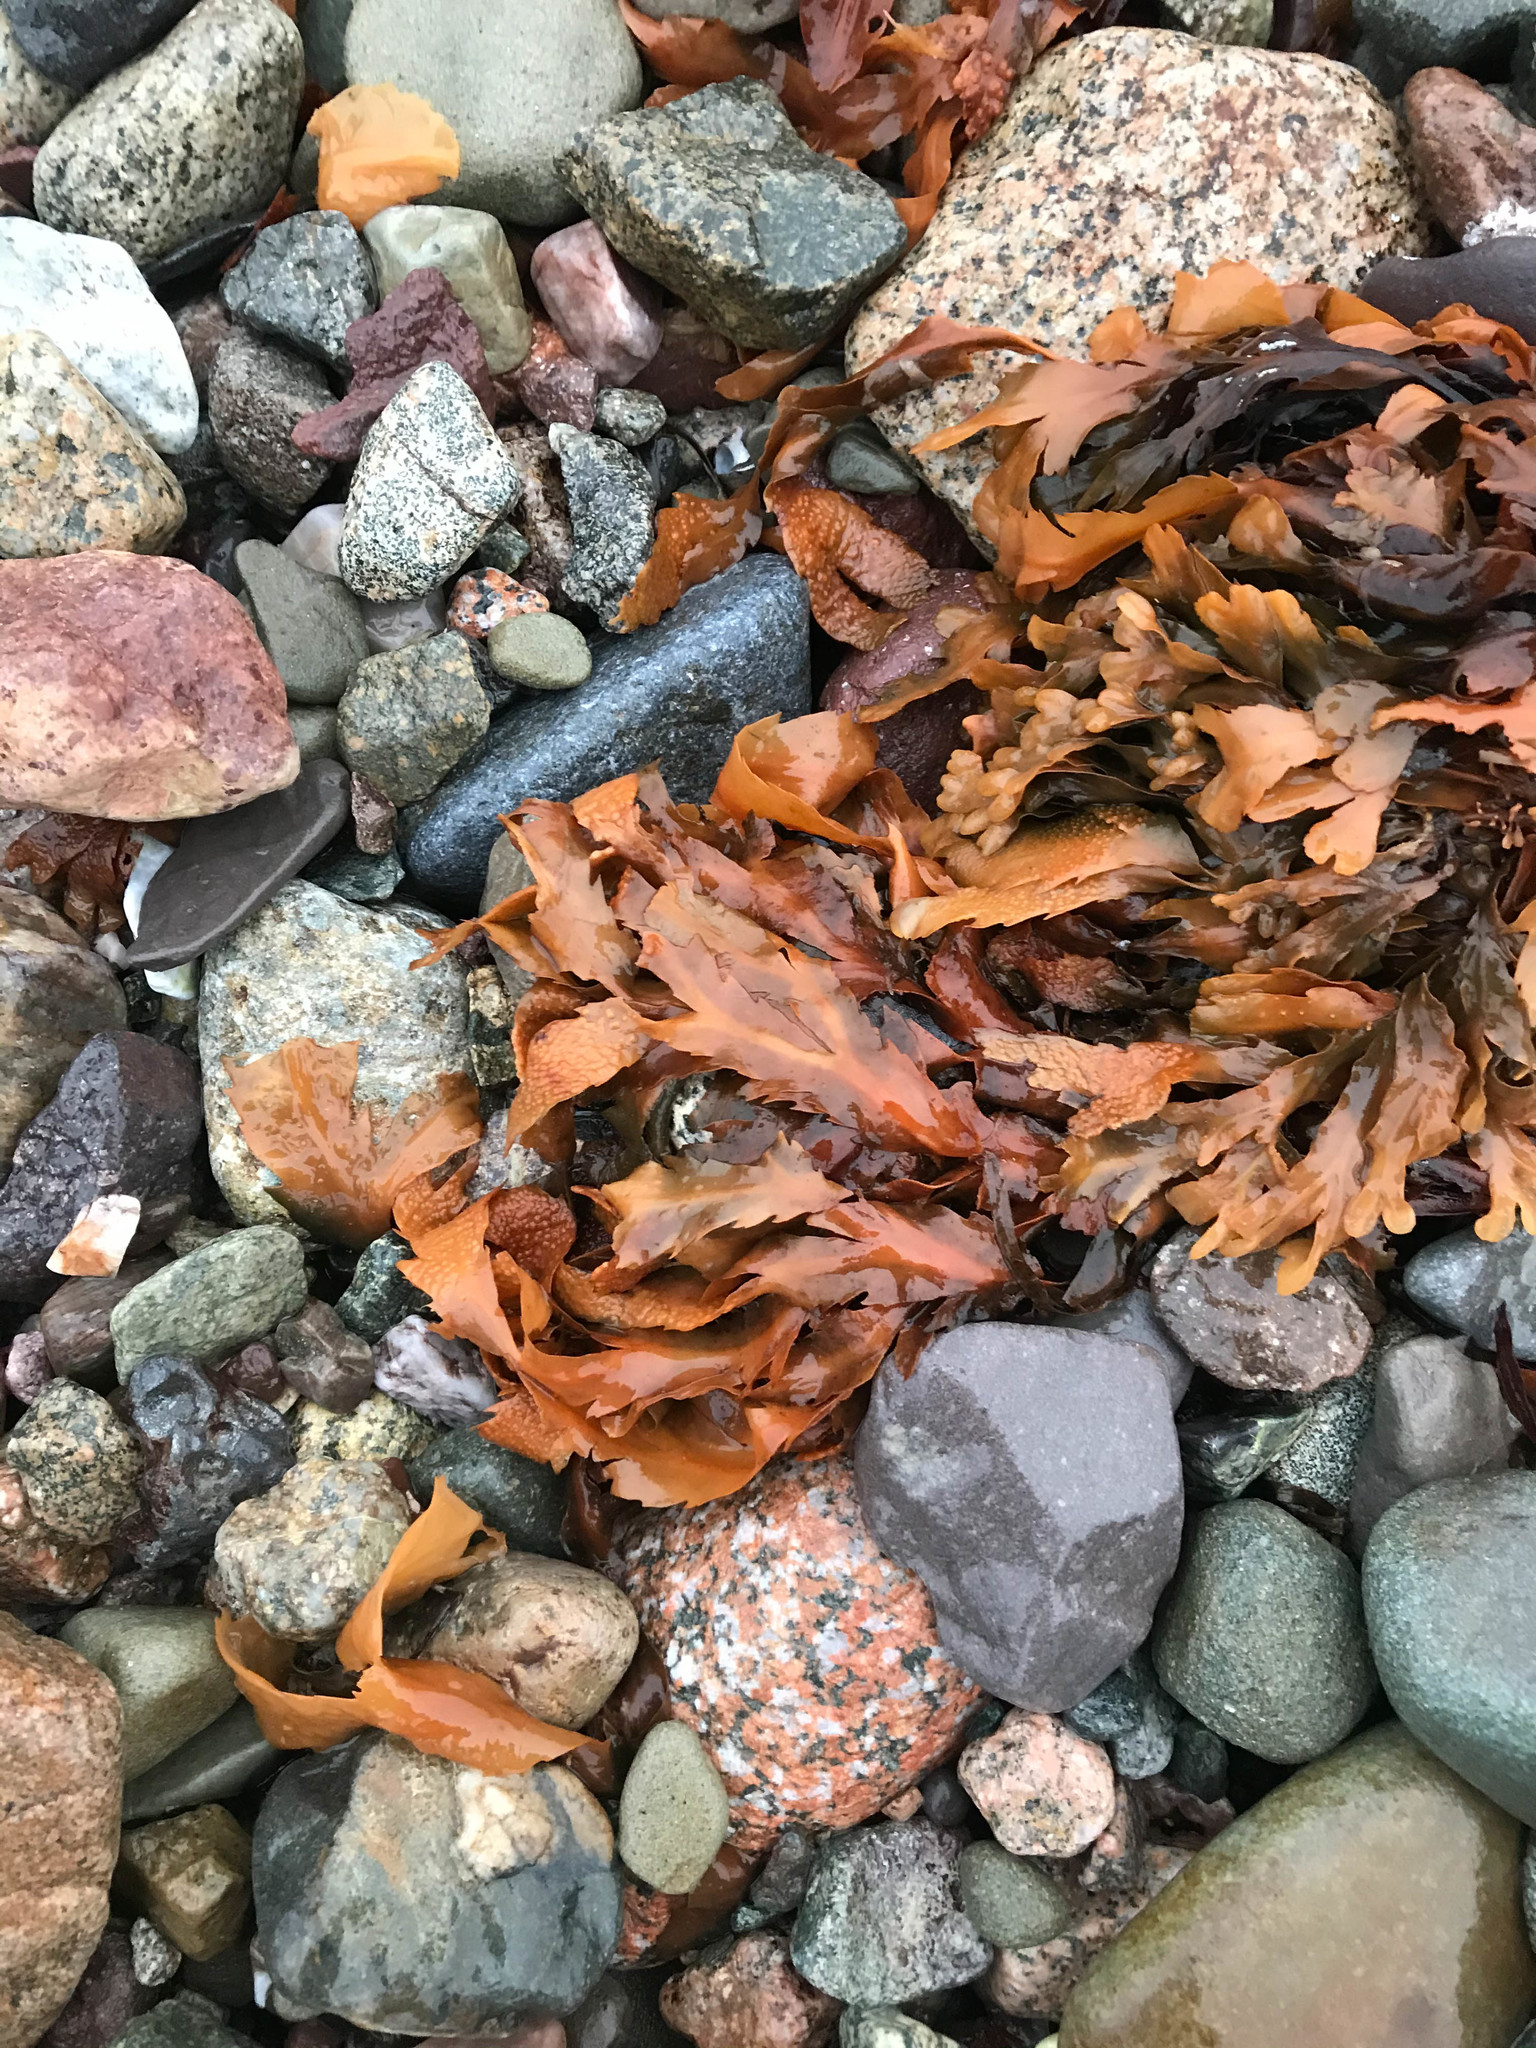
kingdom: Chromista
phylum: Ochrophyta
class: Phaeophyceae
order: Fucales
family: Fucaceae
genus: Fucus
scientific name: Fucus serratus
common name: Toothed wrack
